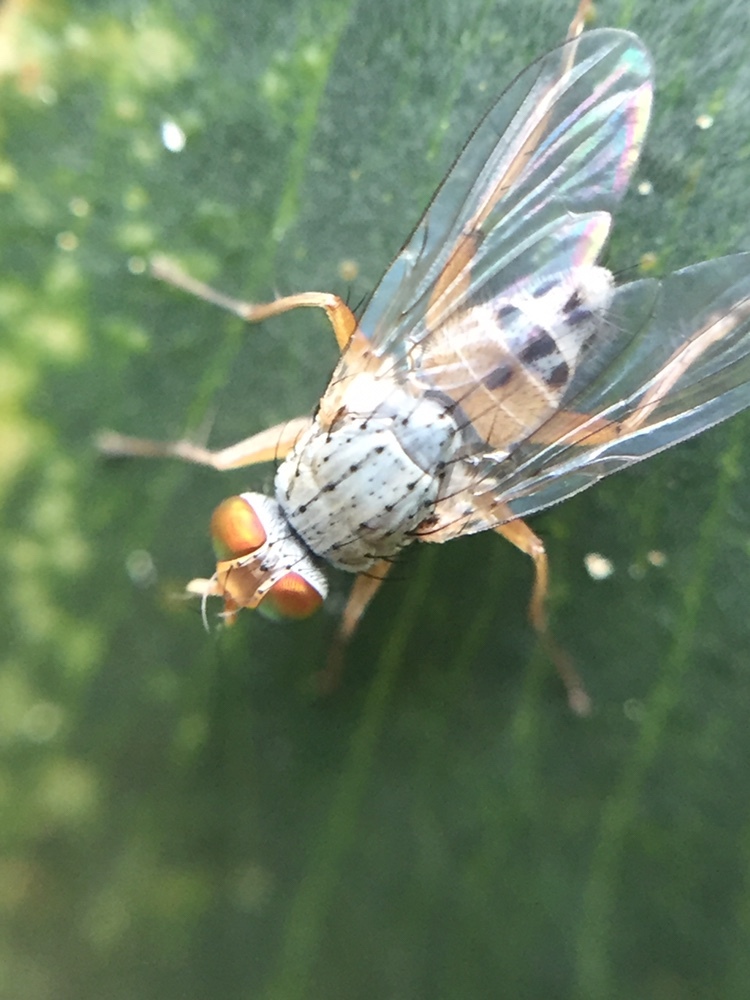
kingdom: Animalia
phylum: Arthropoda
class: Insecta
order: Diptera
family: Muscidae
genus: Pygophora
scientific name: Pygophora apicalis
